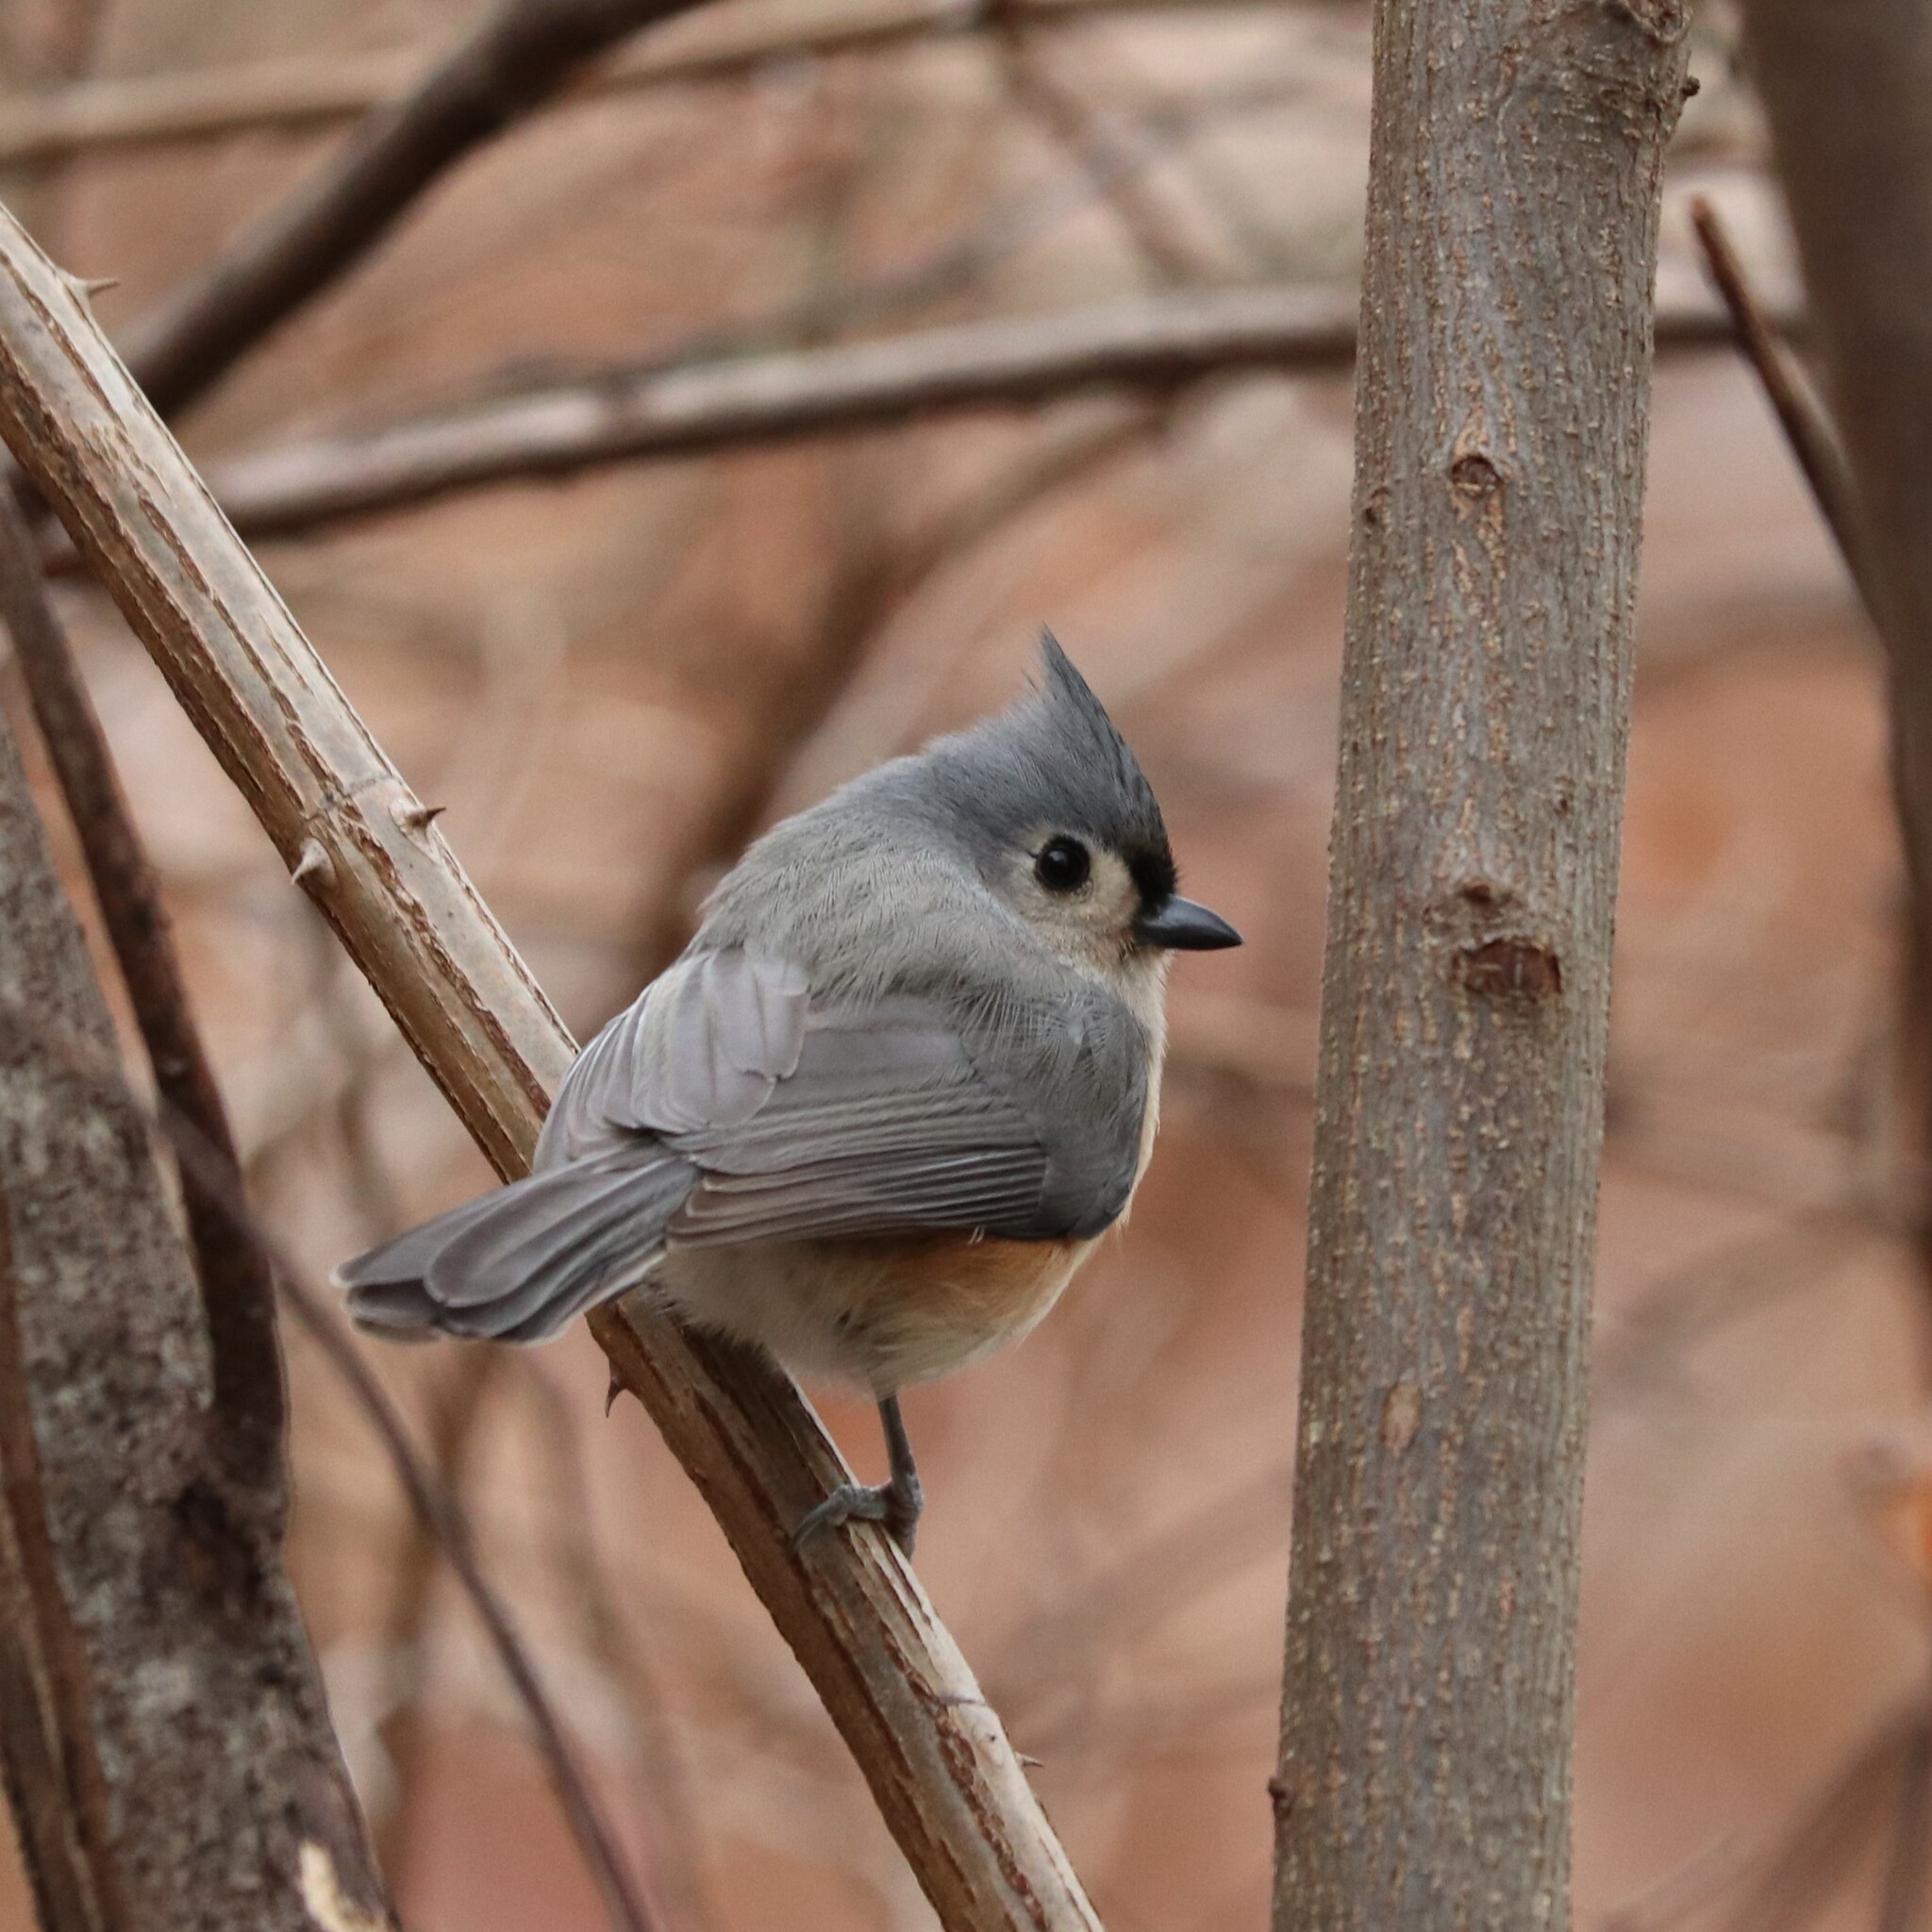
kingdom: Animalia
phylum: Chordata
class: Aves
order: Passeriformes
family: Paridae
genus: Baeolophus
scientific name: Baeolophus bicolor
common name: Tufted titmouse
